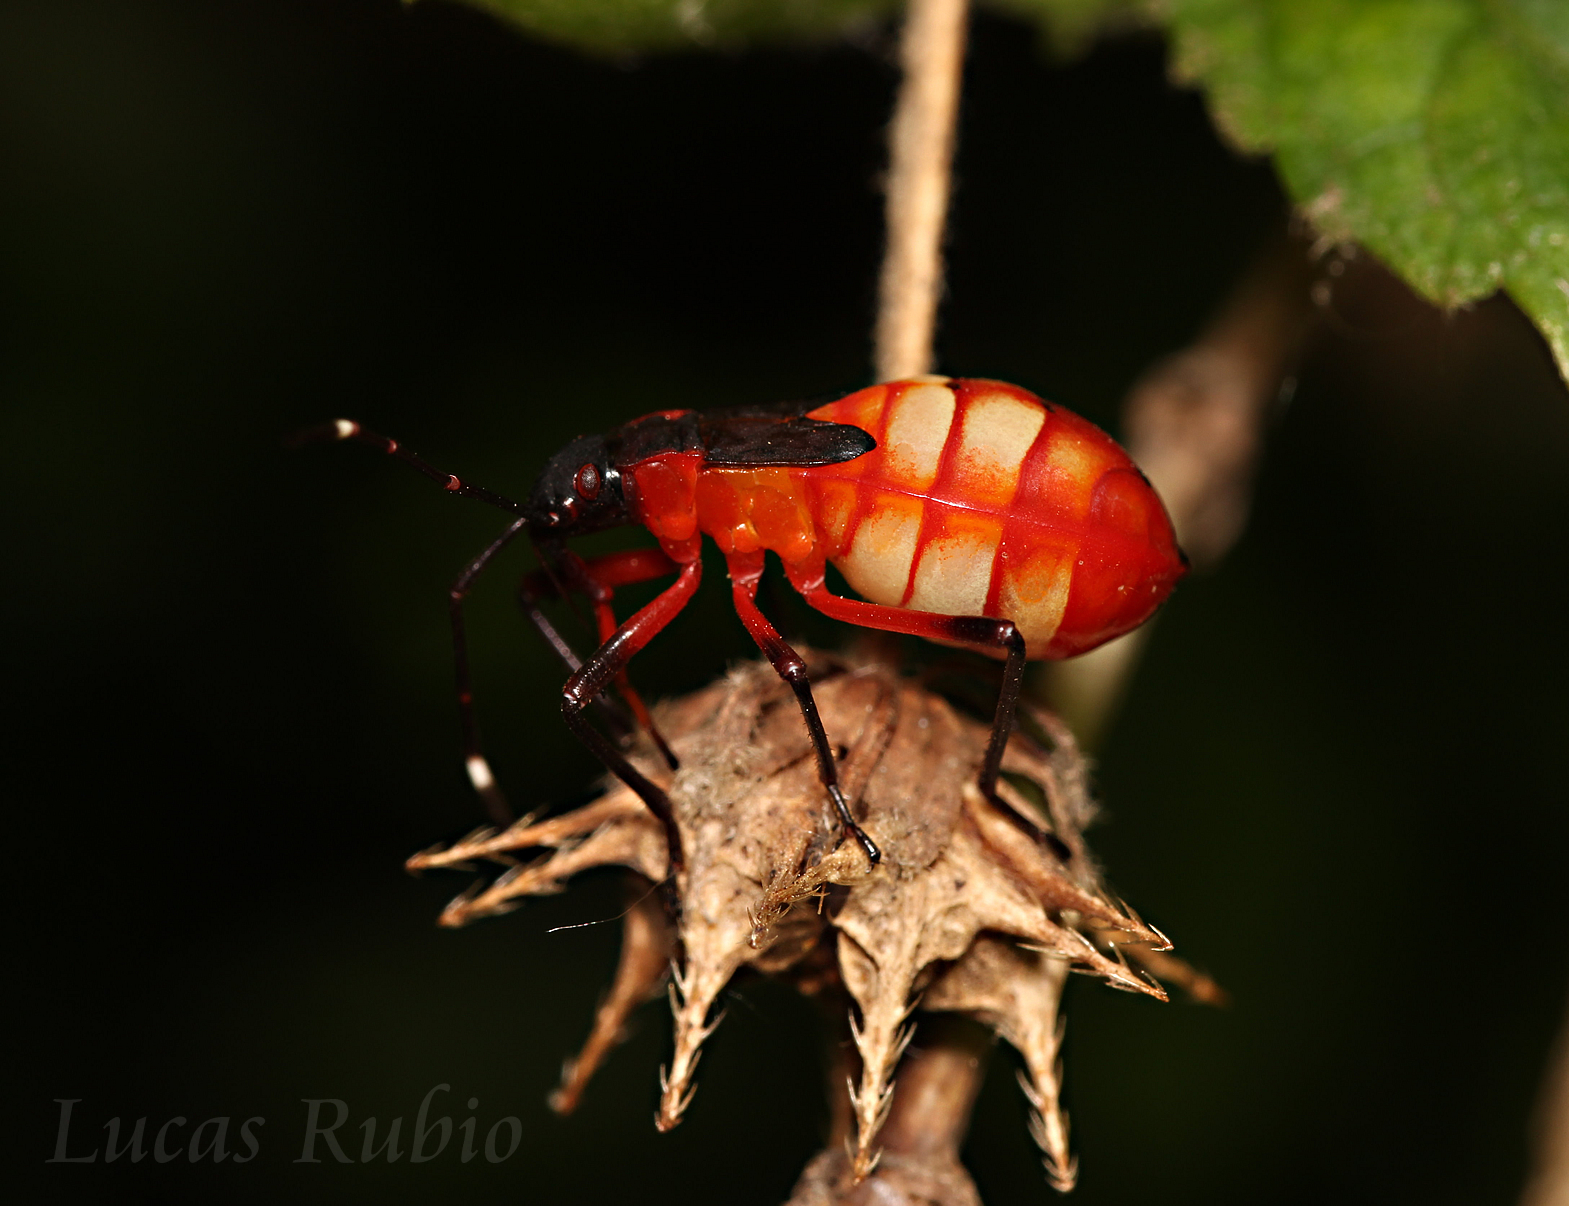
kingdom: Animalia
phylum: Arthropoda
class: Insecta
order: Hemiptera
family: Pyrrhocoridae
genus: Dysdercus
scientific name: Dysdercus albofasciatus
